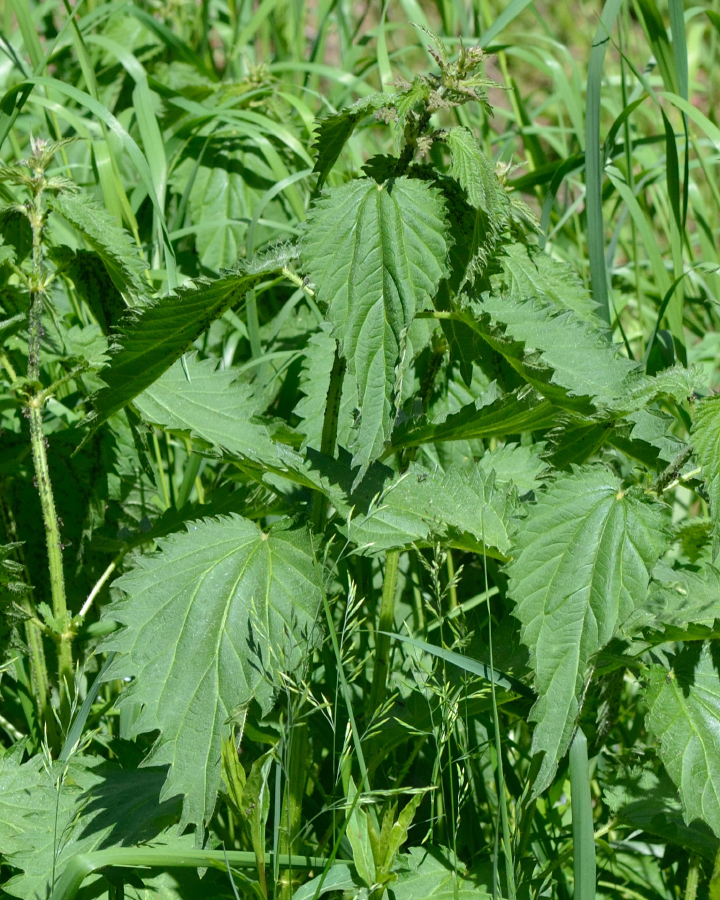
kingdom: Plantae
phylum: Tracheophyta
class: Magnoliopsida
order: Rosales
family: Urticaceae
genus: Urtica
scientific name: Urtica dioica
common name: Common nettle
